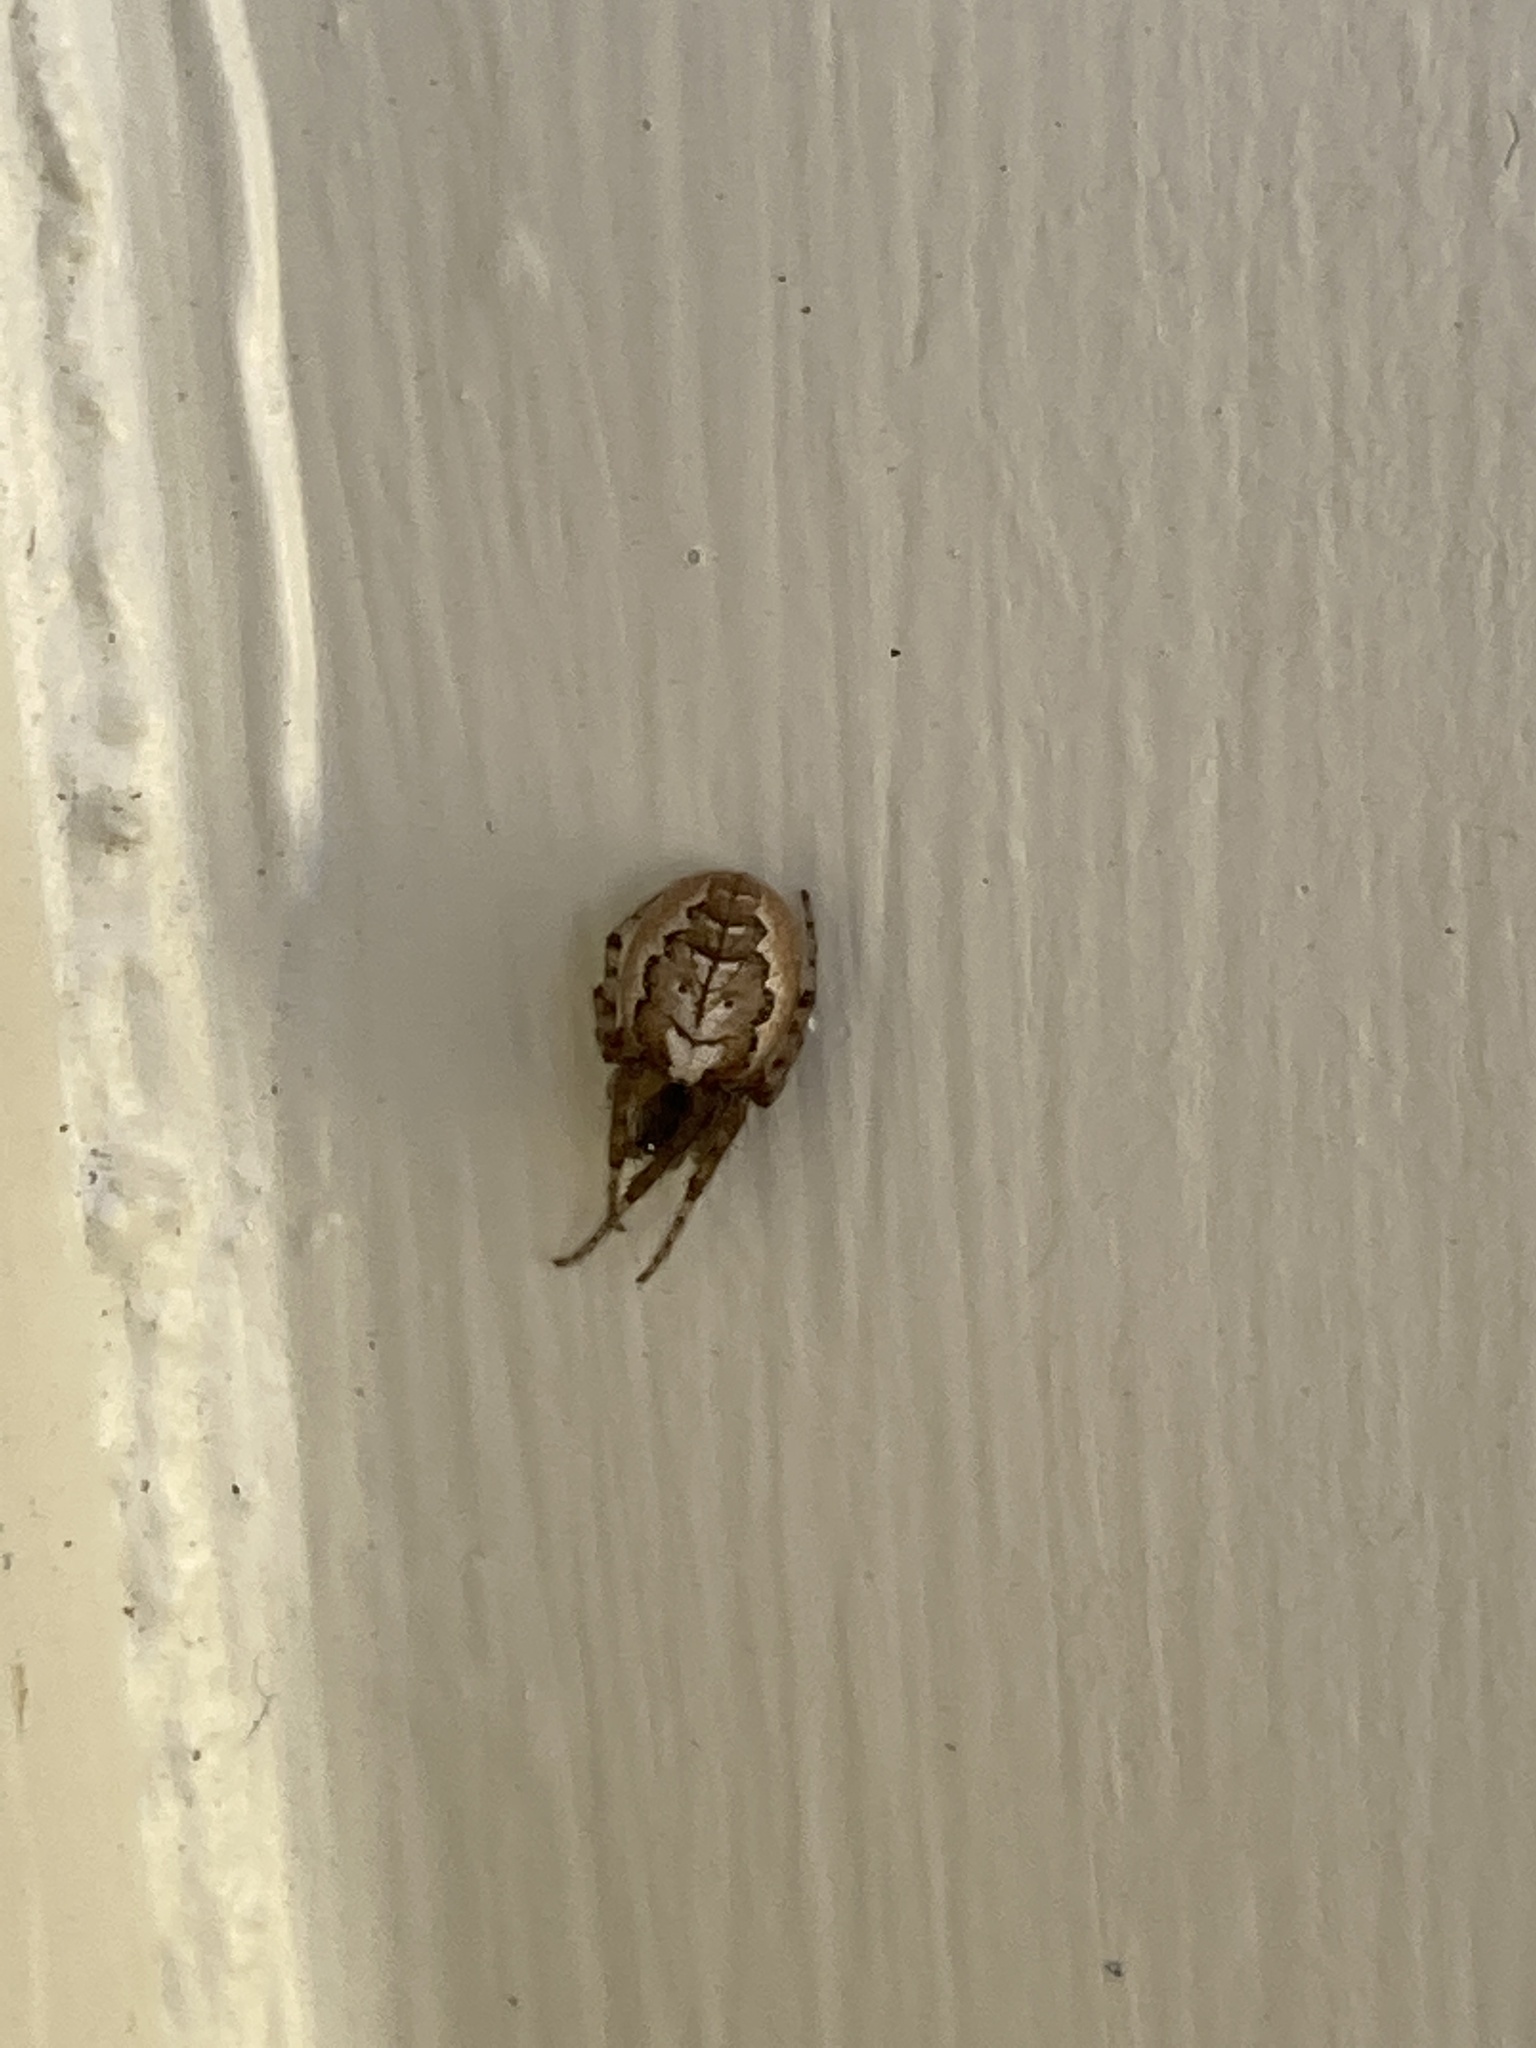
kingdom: Animalia
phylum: Arthropoda
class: Arachnida
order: Araneae
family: Araneidae
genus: Zygiella
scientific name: Zygiella x-notata
